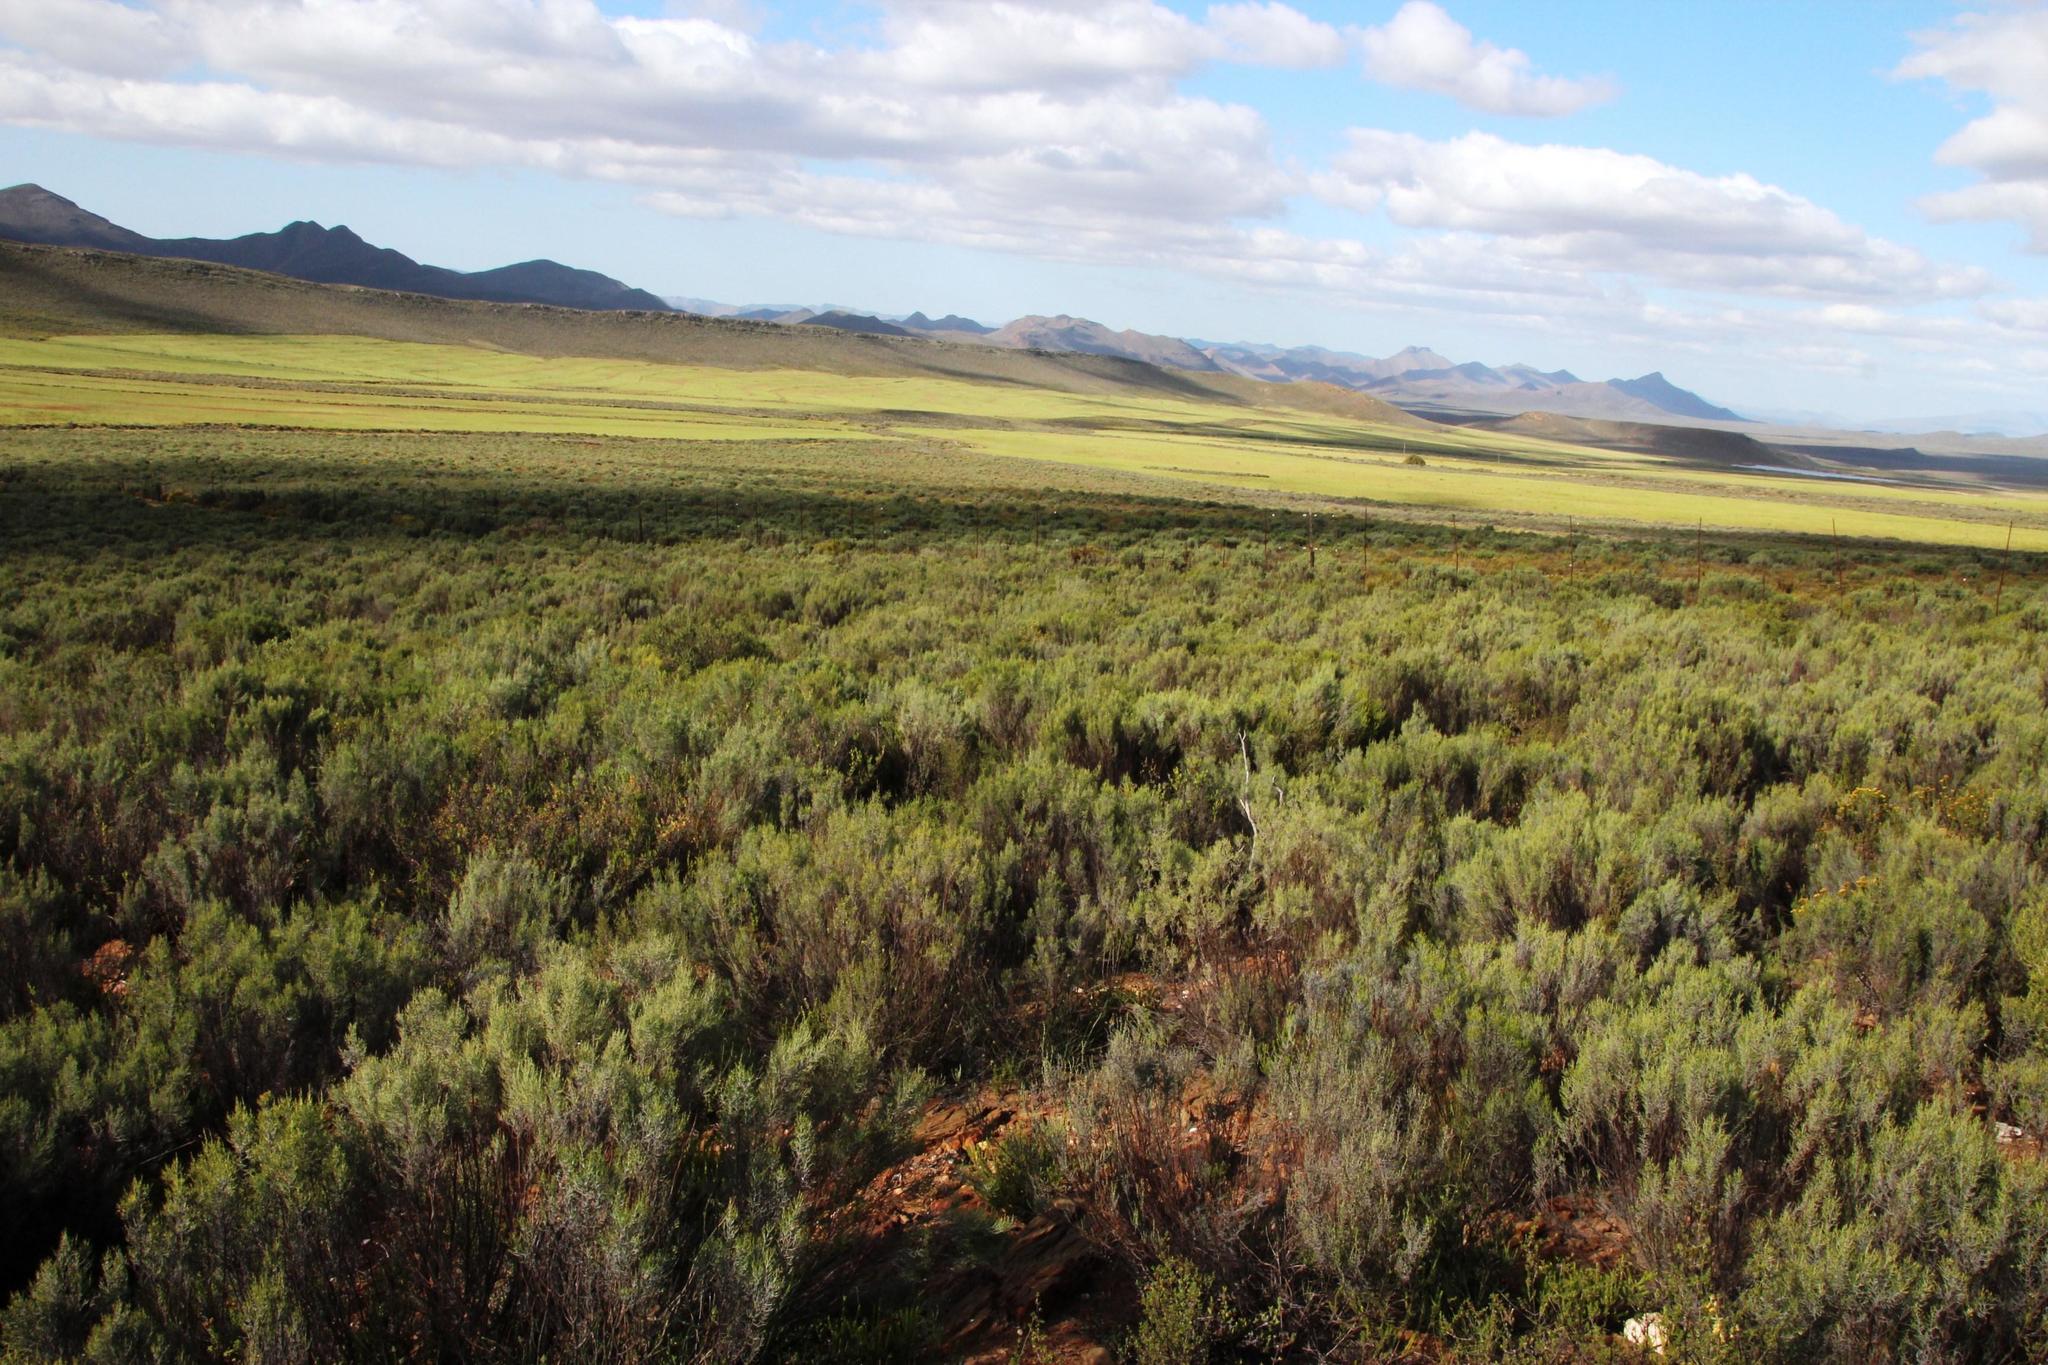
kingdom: Plantae
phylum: Tracheophyta
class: Magnoliopsida
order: Asterales
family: Asteraceae
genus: Dicerothamnus
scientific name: Dicerothamnus rhinocerotis
